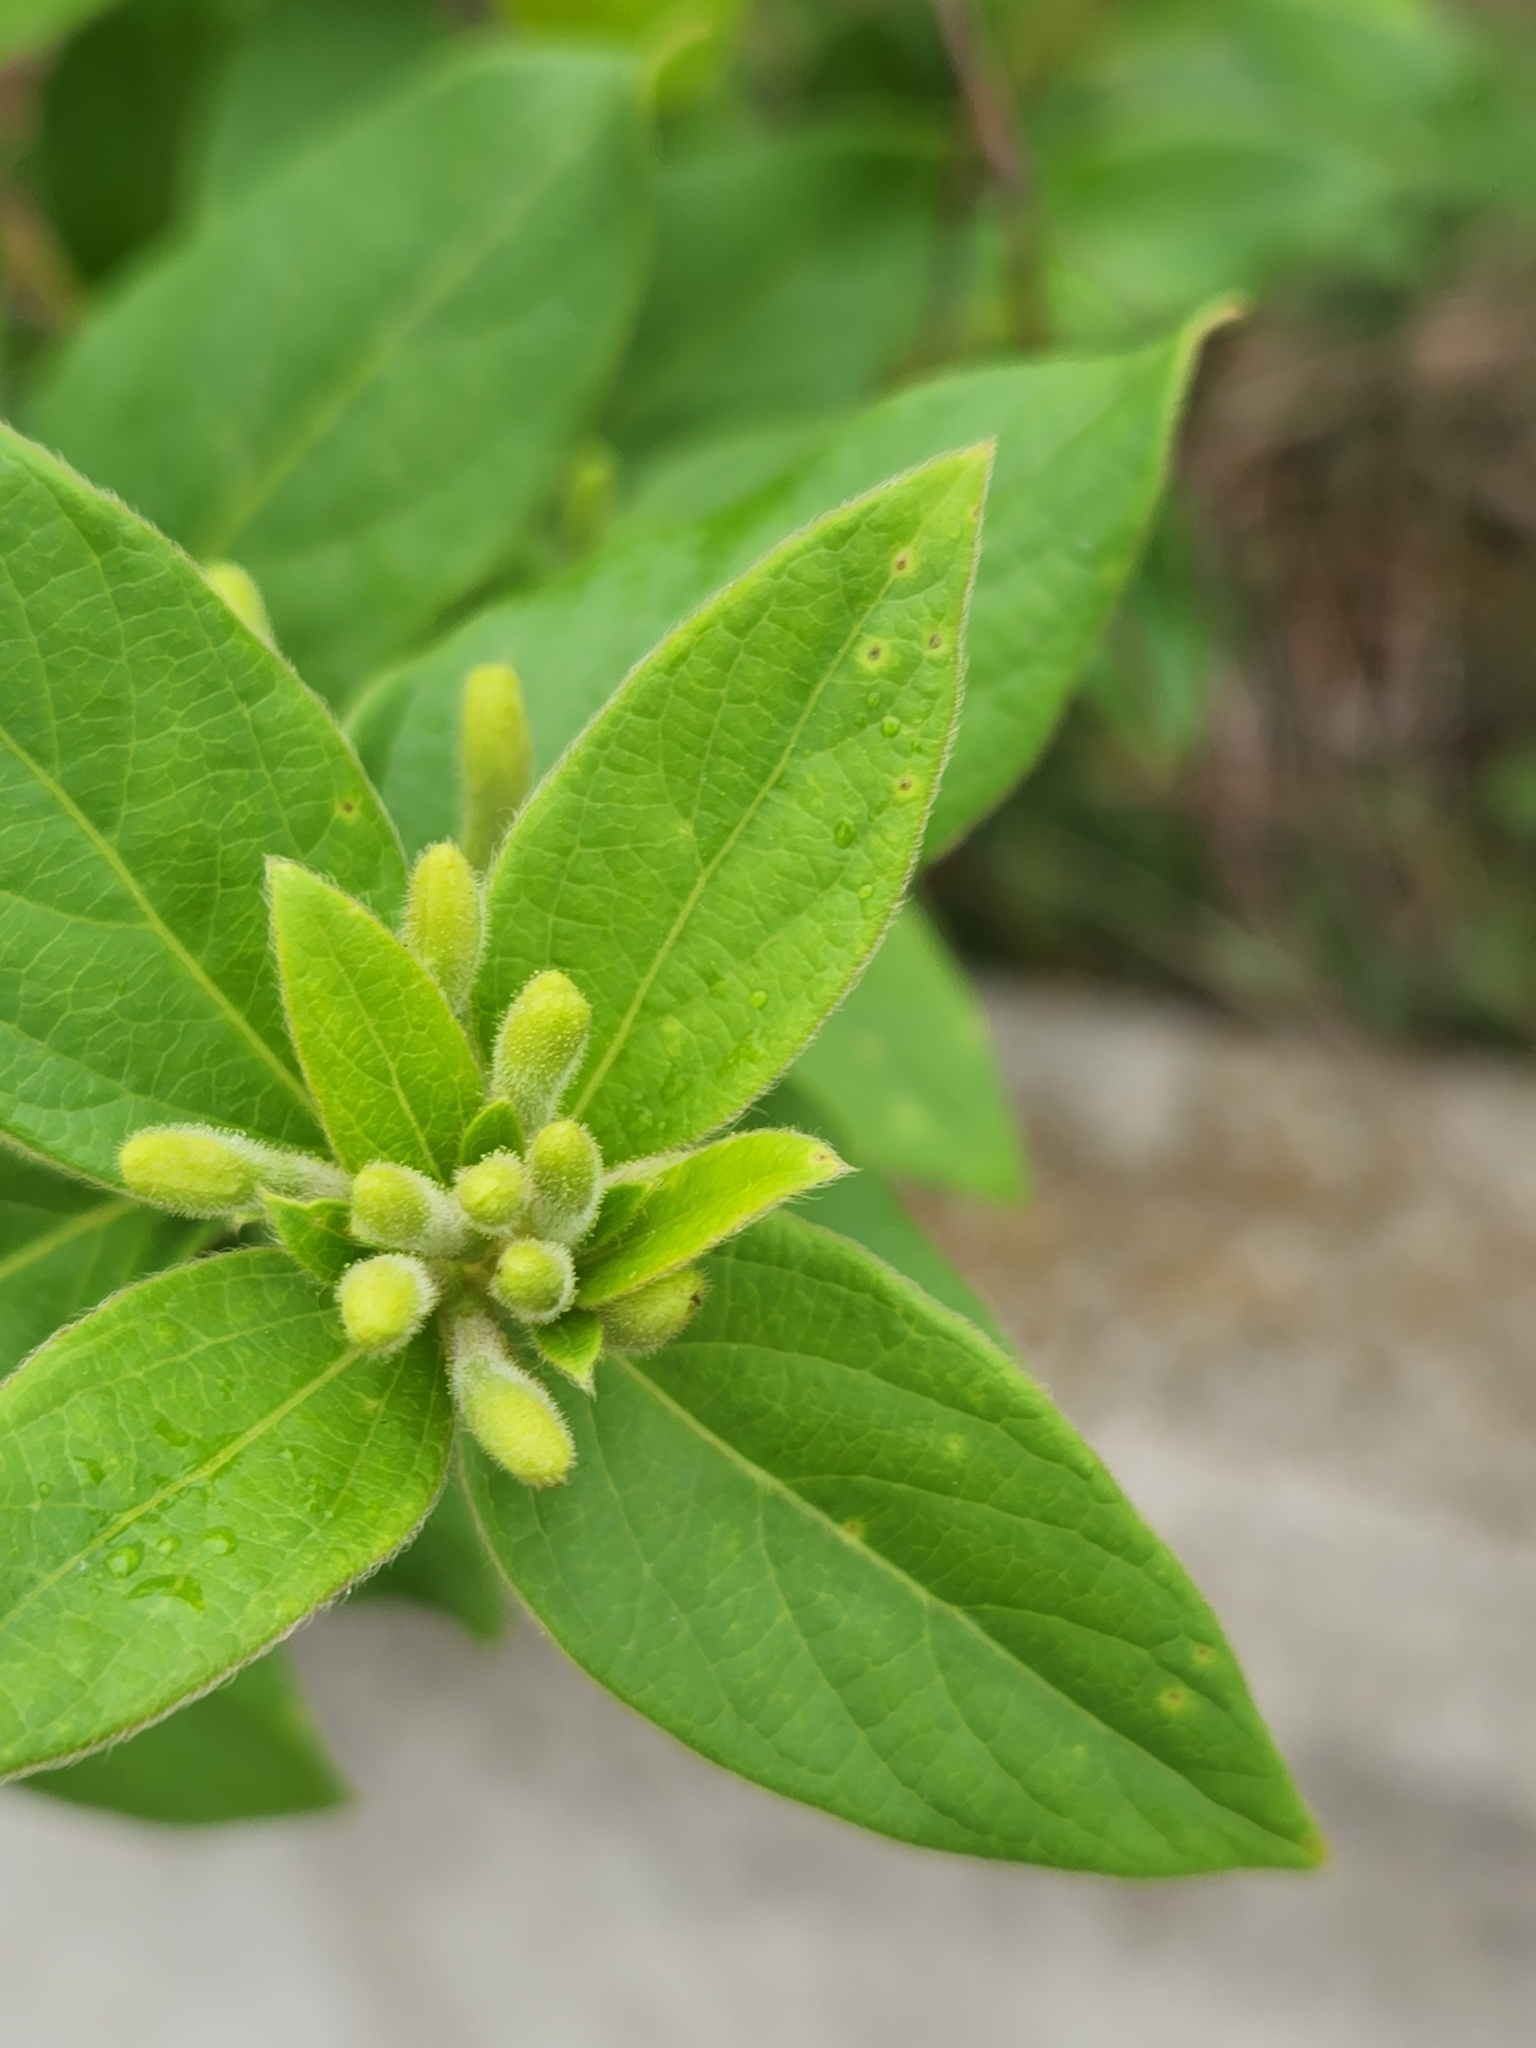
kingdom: Plantae
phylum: Tracheophyta
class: Magnoliopsida
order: Dipsacales
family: Caprifoliaceae
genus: Lonicera
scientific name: Lonicera japonica
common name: Japanese honeysuckle
